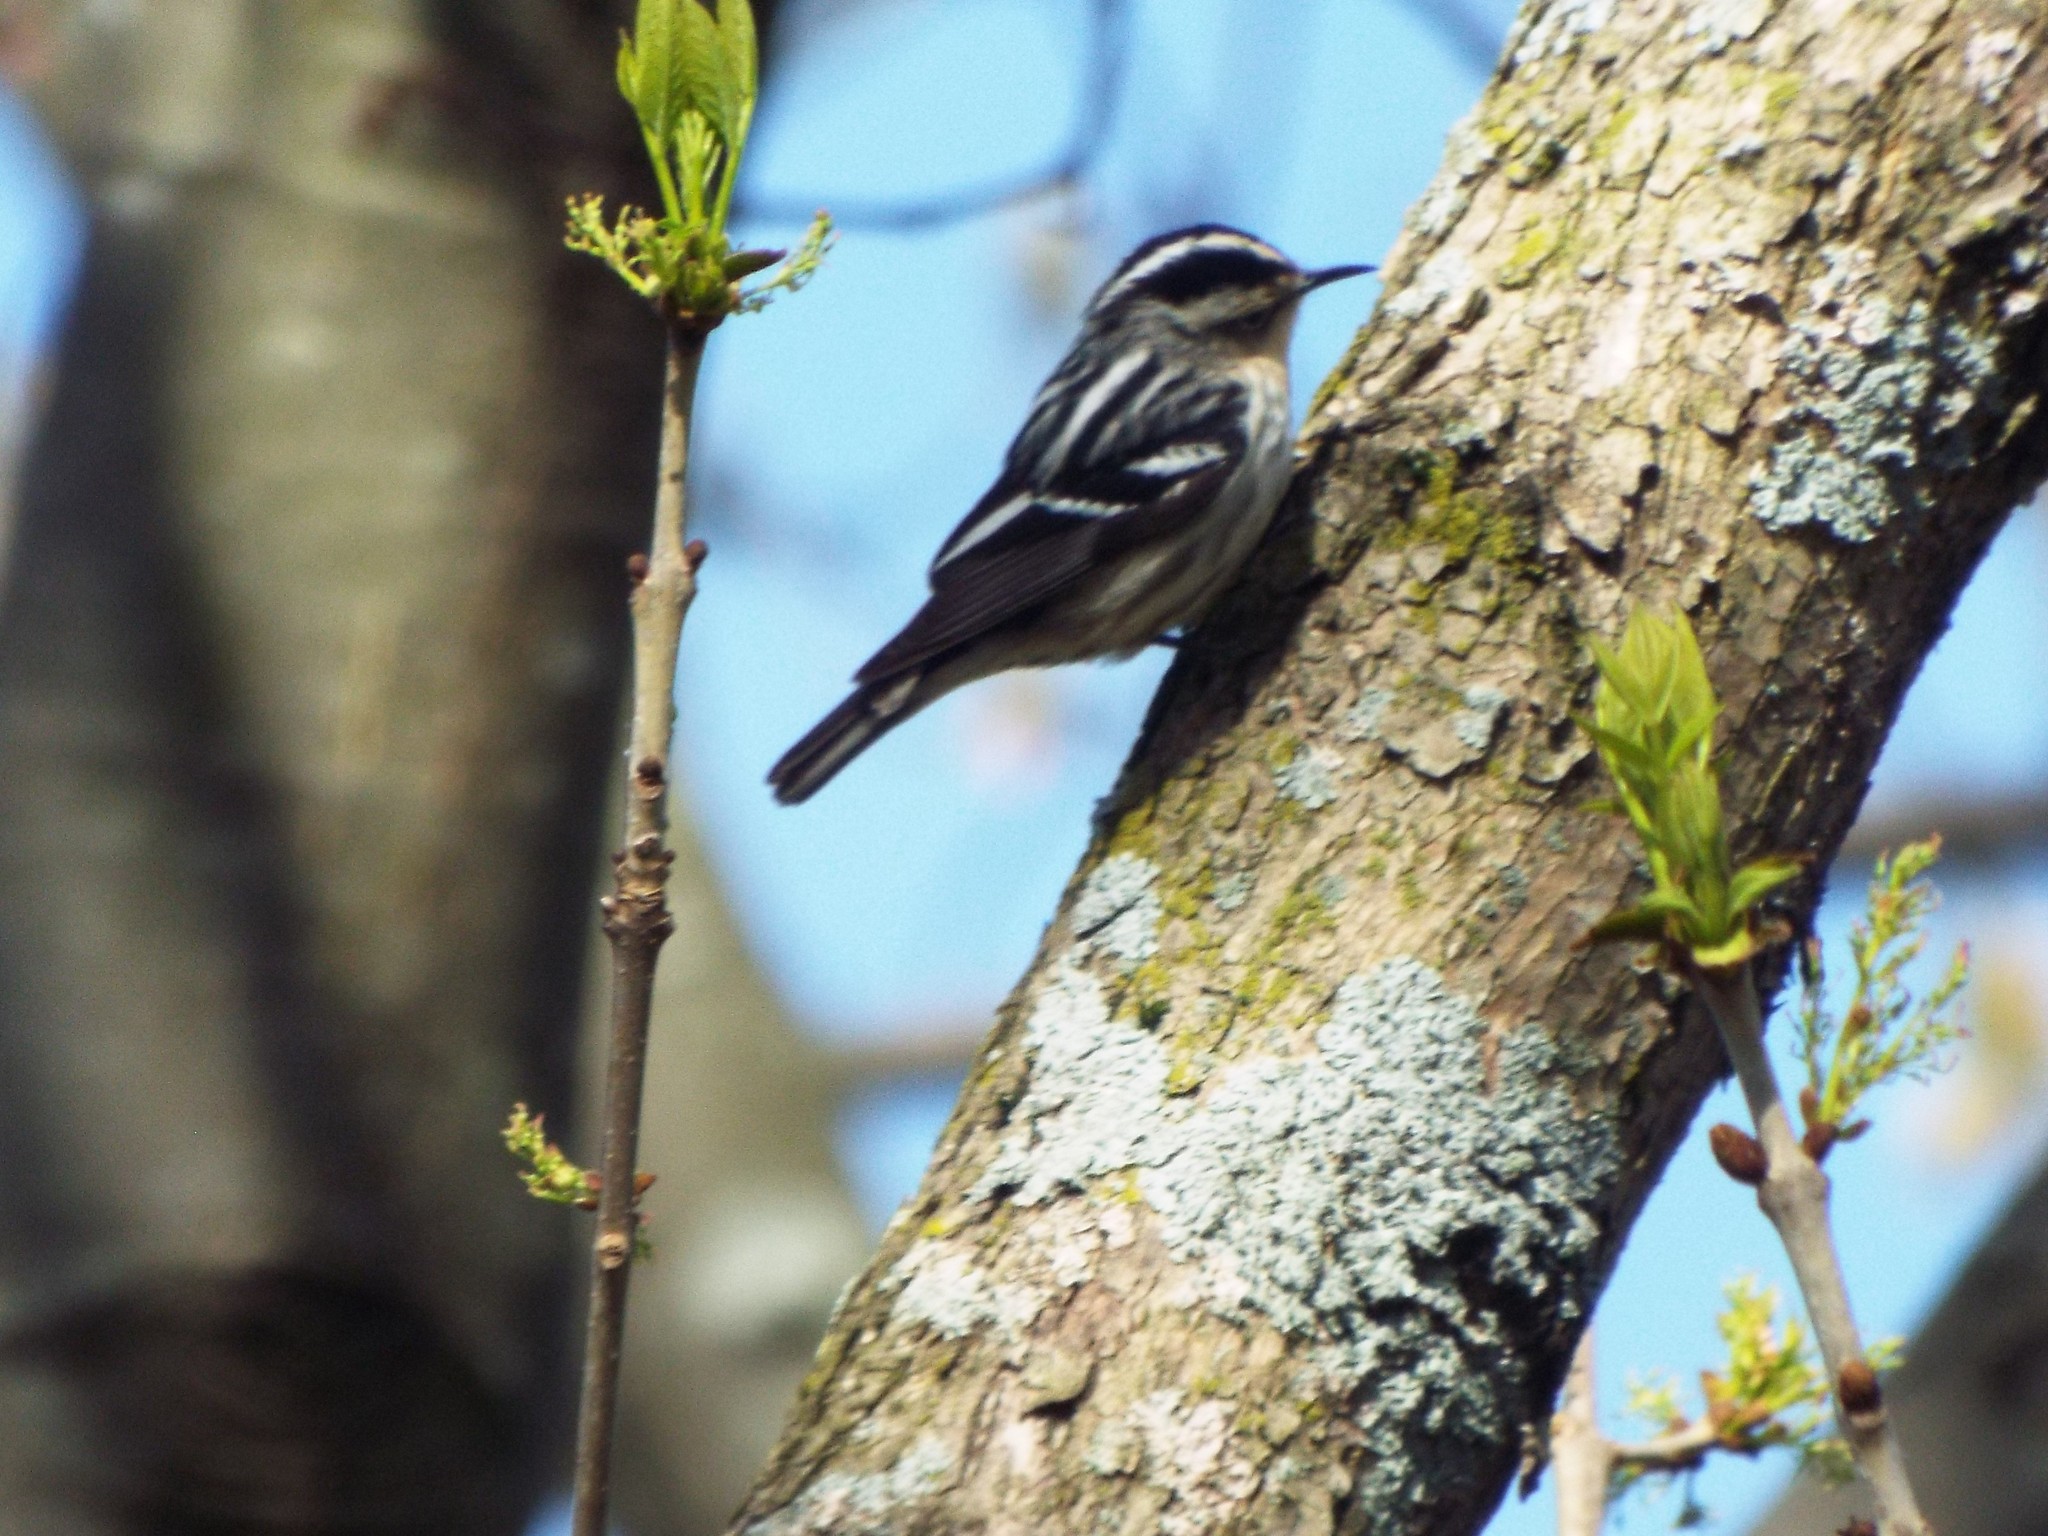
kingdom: Animalia
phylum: Chordata
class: Aves
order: Passeriformes
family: Parulidae
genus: Mniotilta
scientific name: Mniotilta varia
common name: Black-and-white warbler
